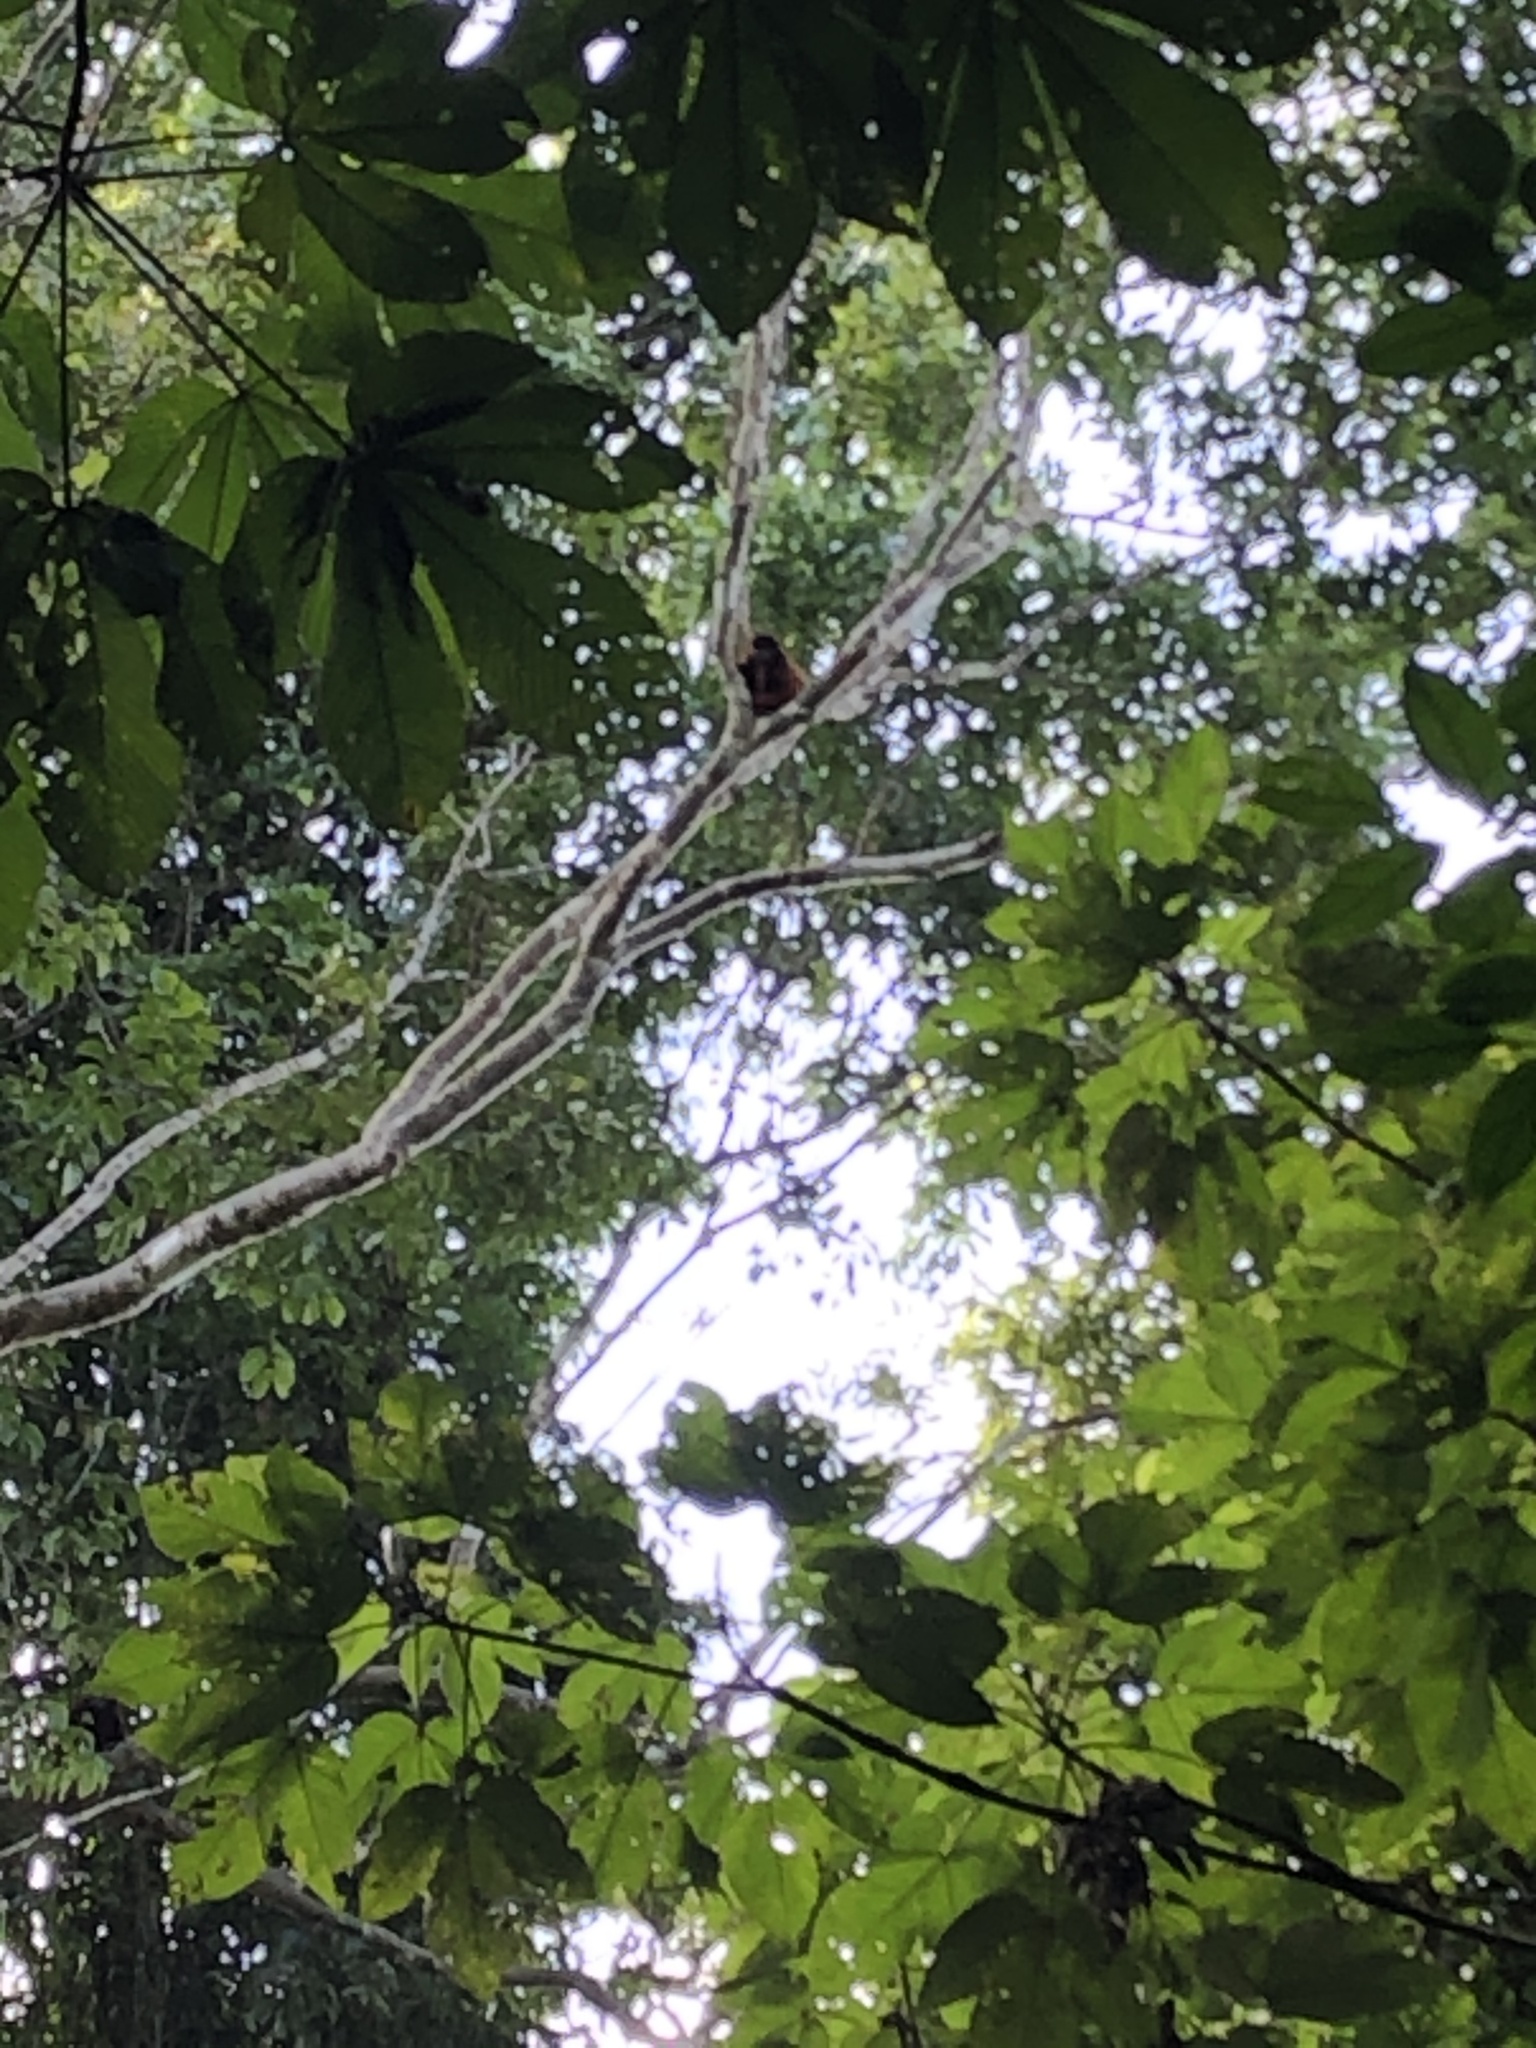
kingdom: Animalia
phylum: Chordata
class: Mammalia
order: Primates
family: Atelidae
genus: Alouatta
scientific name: Alouatta seniculus
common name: Venezuelan red howler
